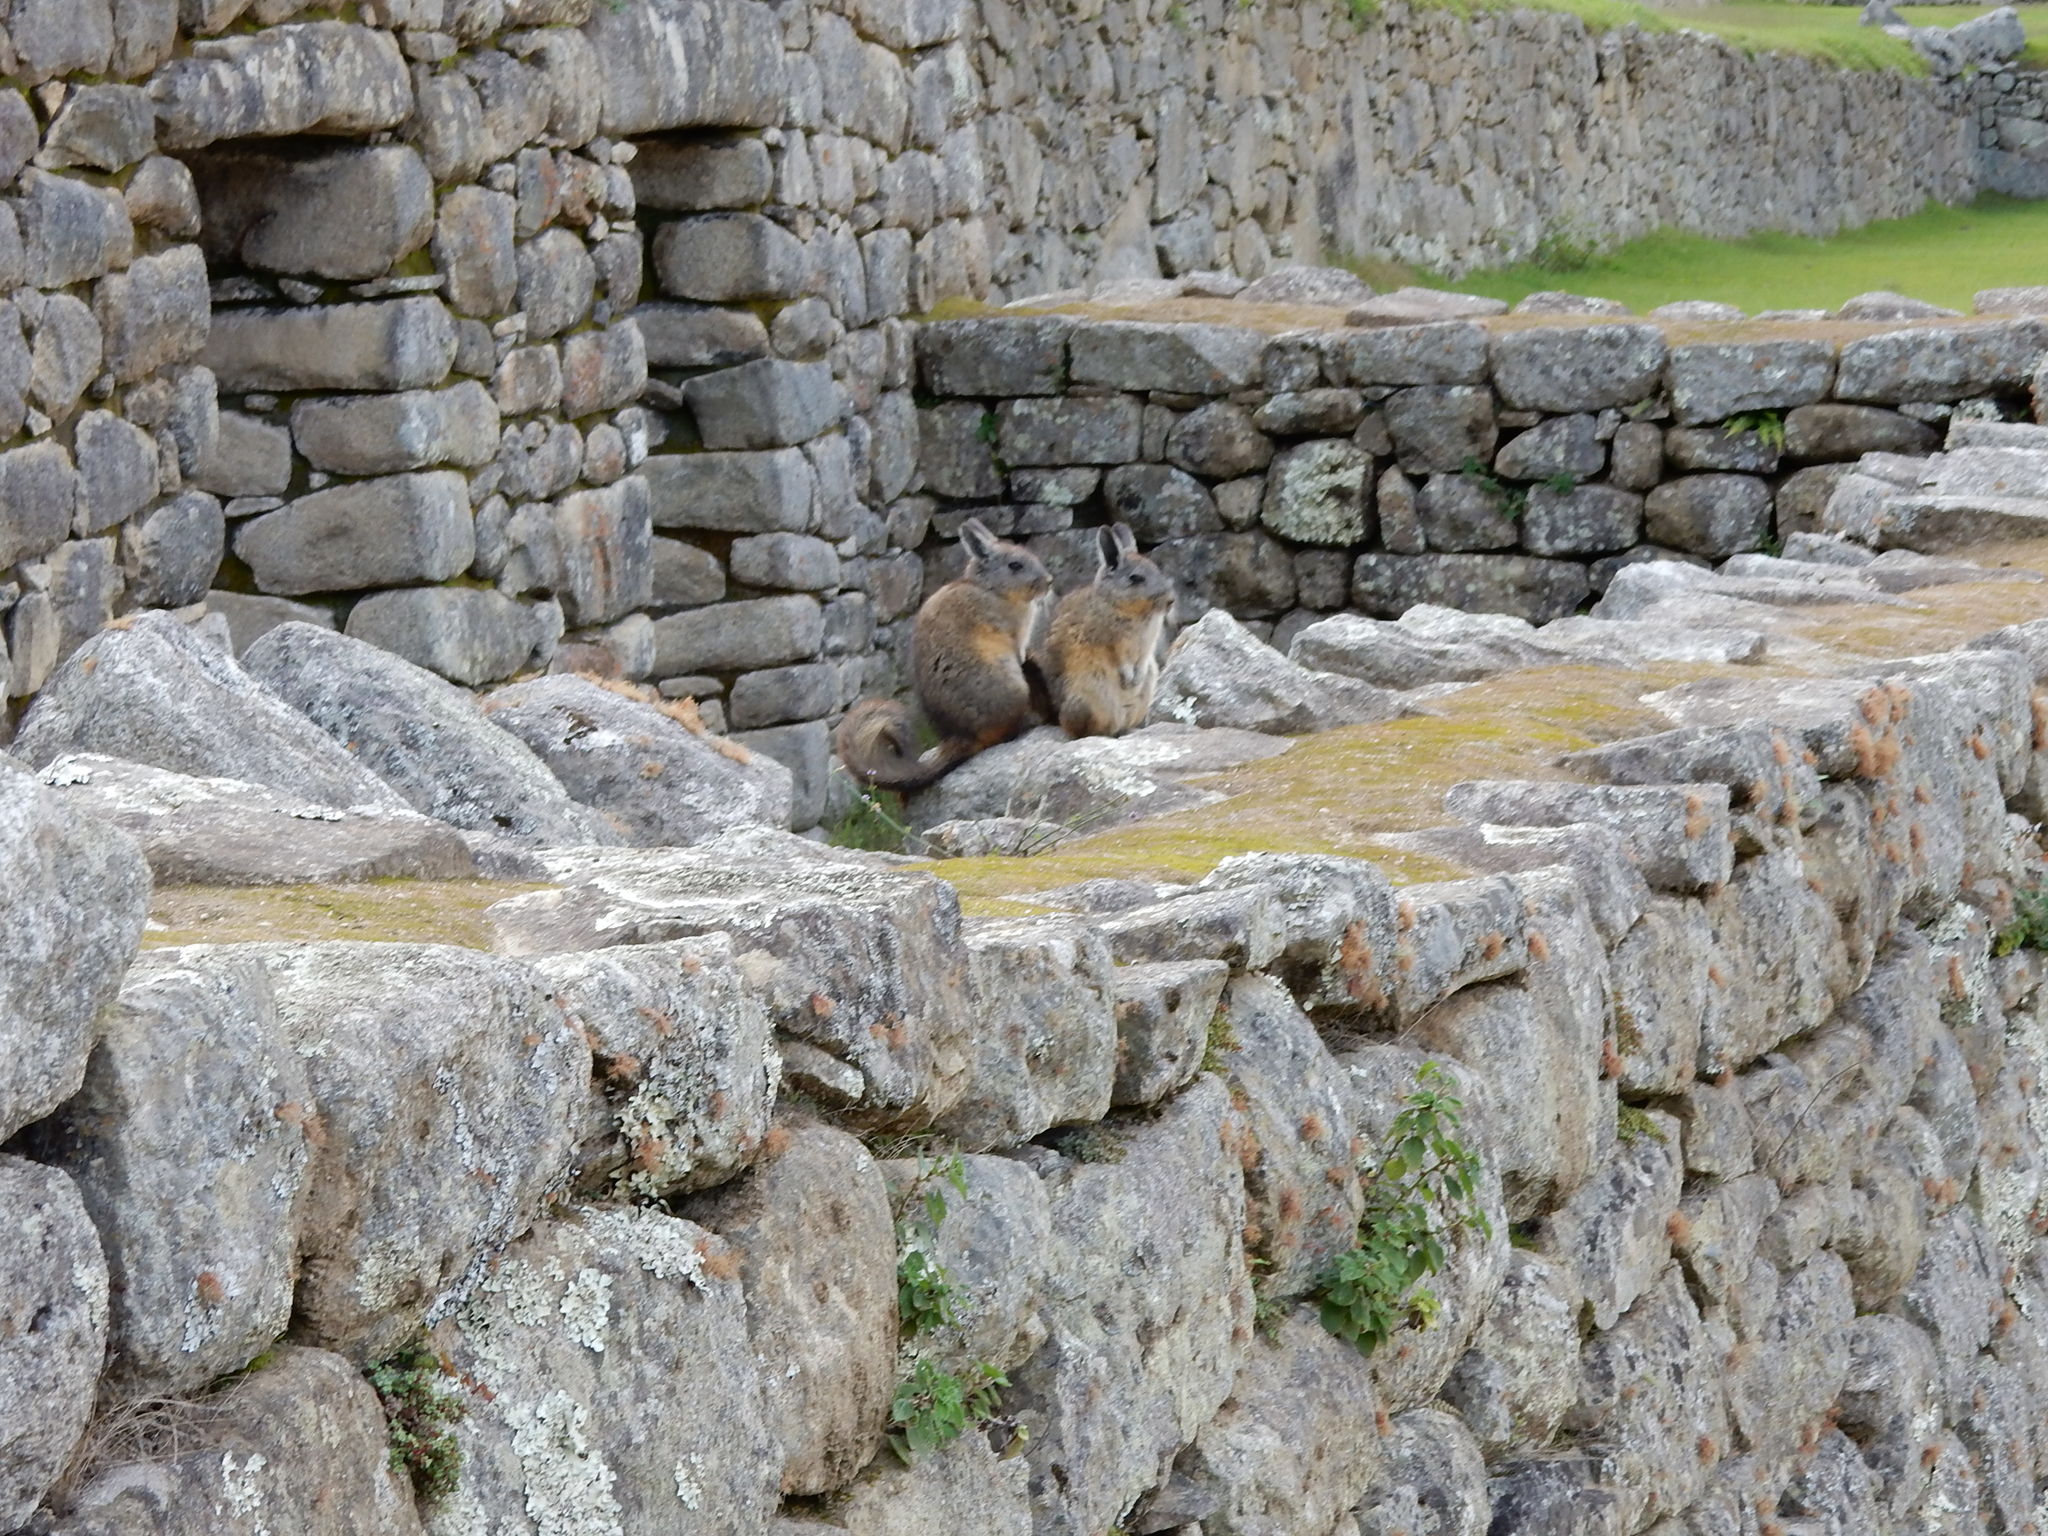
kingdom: Animalia
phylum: Chordata
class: Mammalia
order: Rodentia
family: Chinchillidae
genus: Lagidium
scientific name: Lagidium viscacia
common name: Southern viscacha
